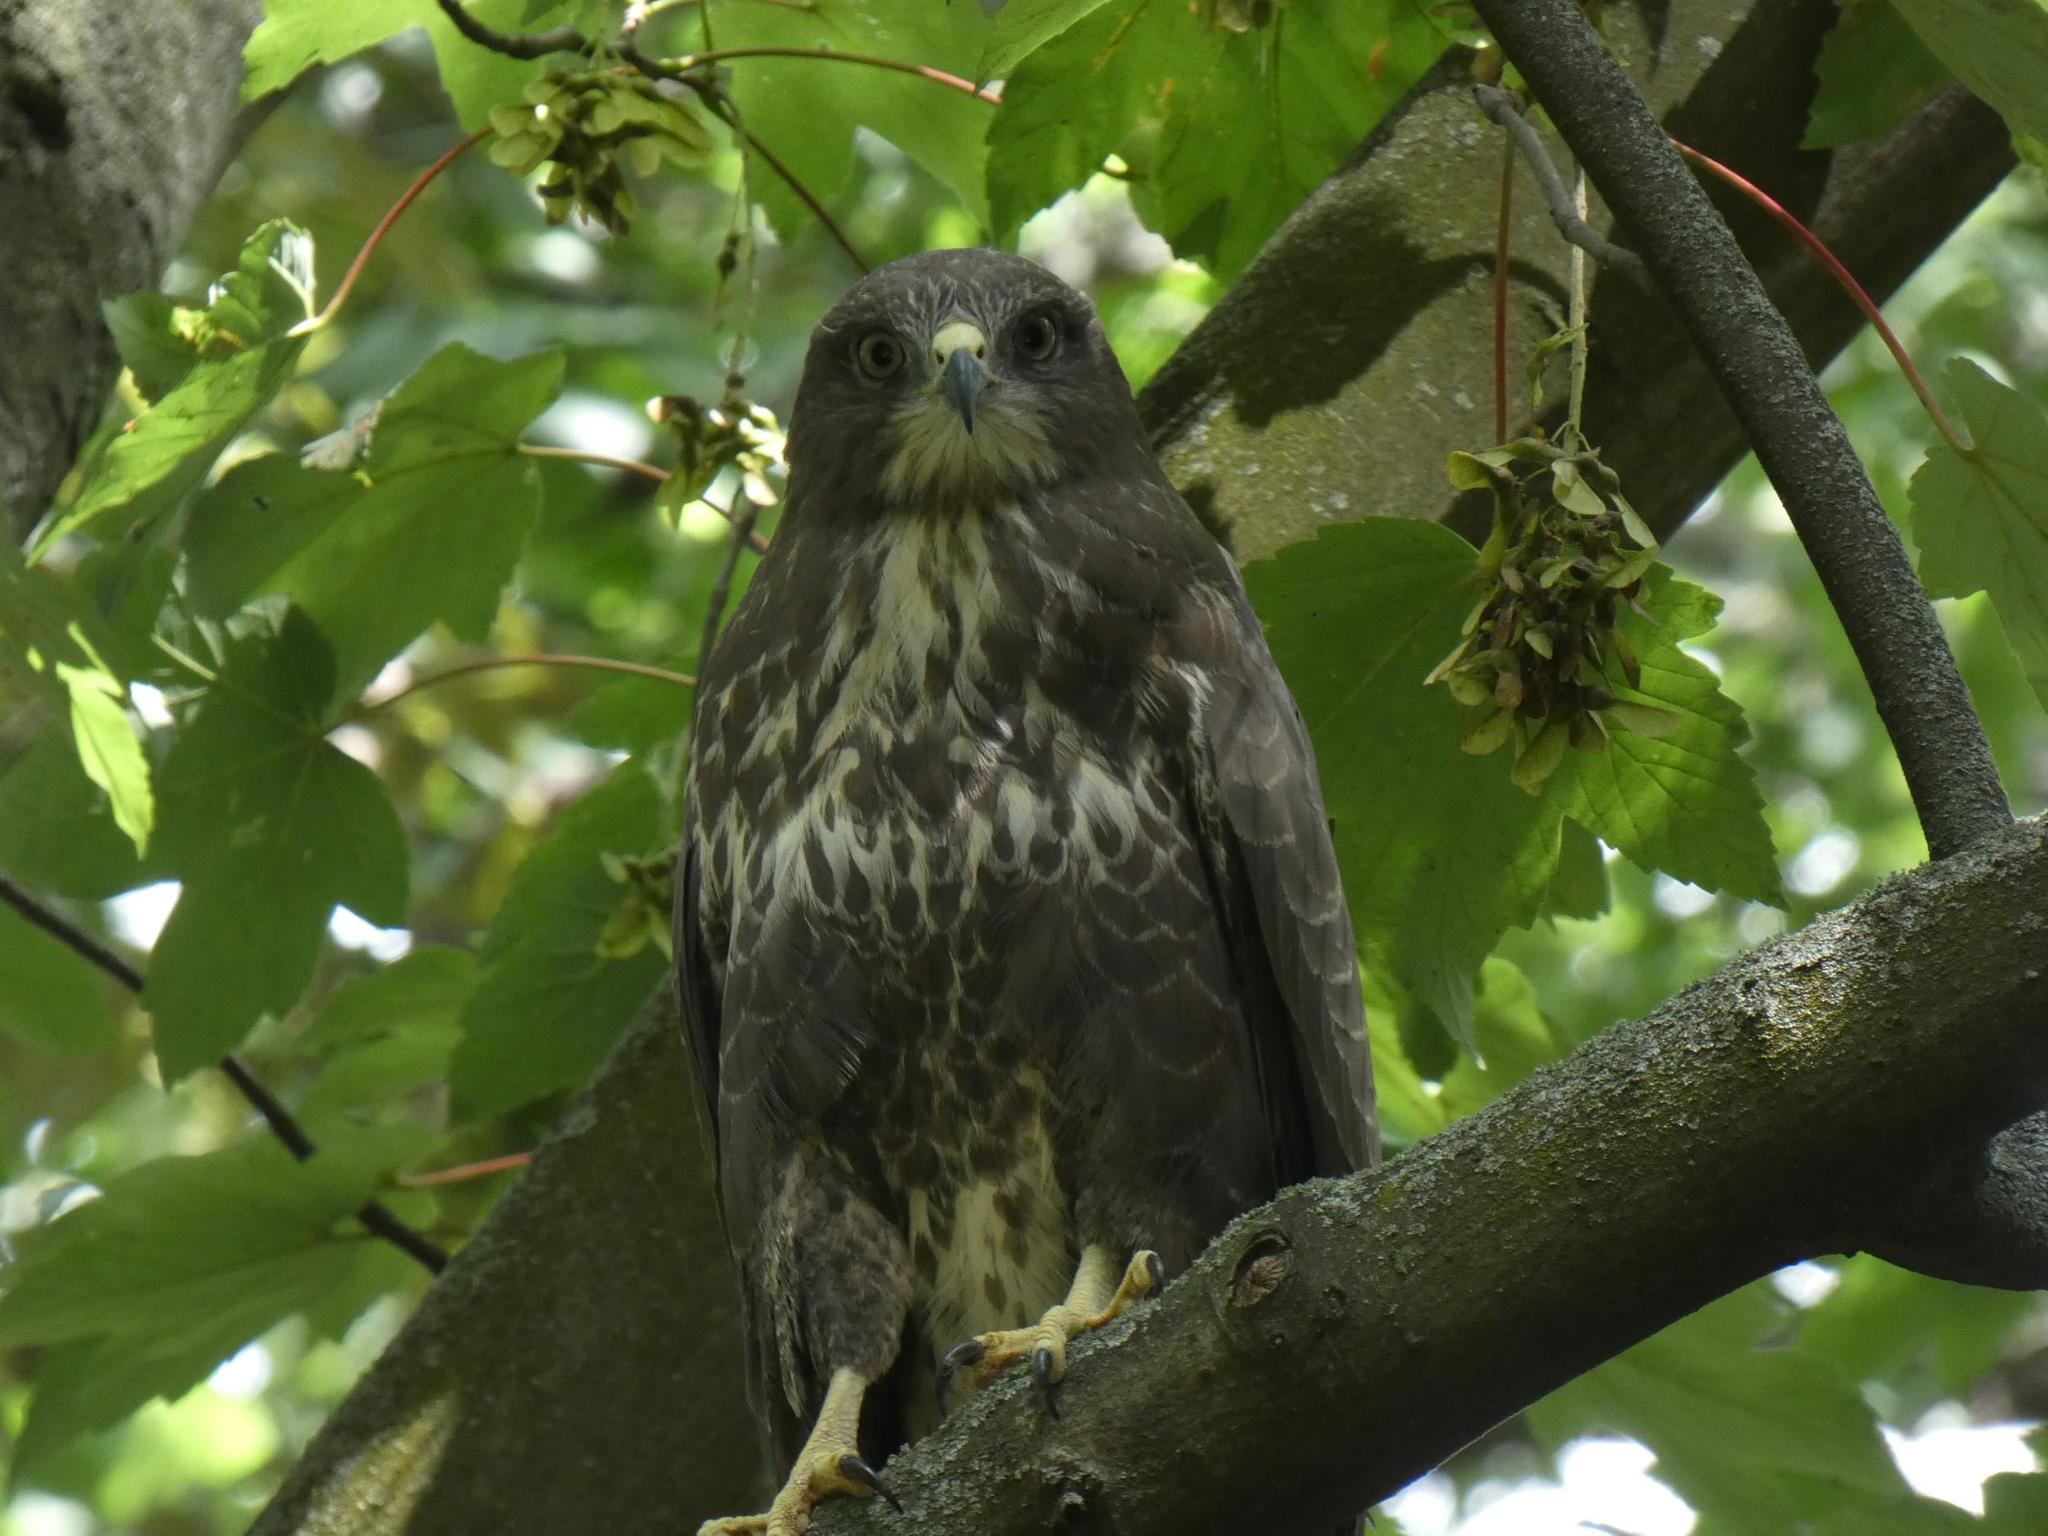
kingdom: Animalia
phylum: Chordata
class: Aves
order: Accipitriformes
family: Accipitridae
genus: Buteo
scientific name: Buteo buteo
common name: Common buzzard
